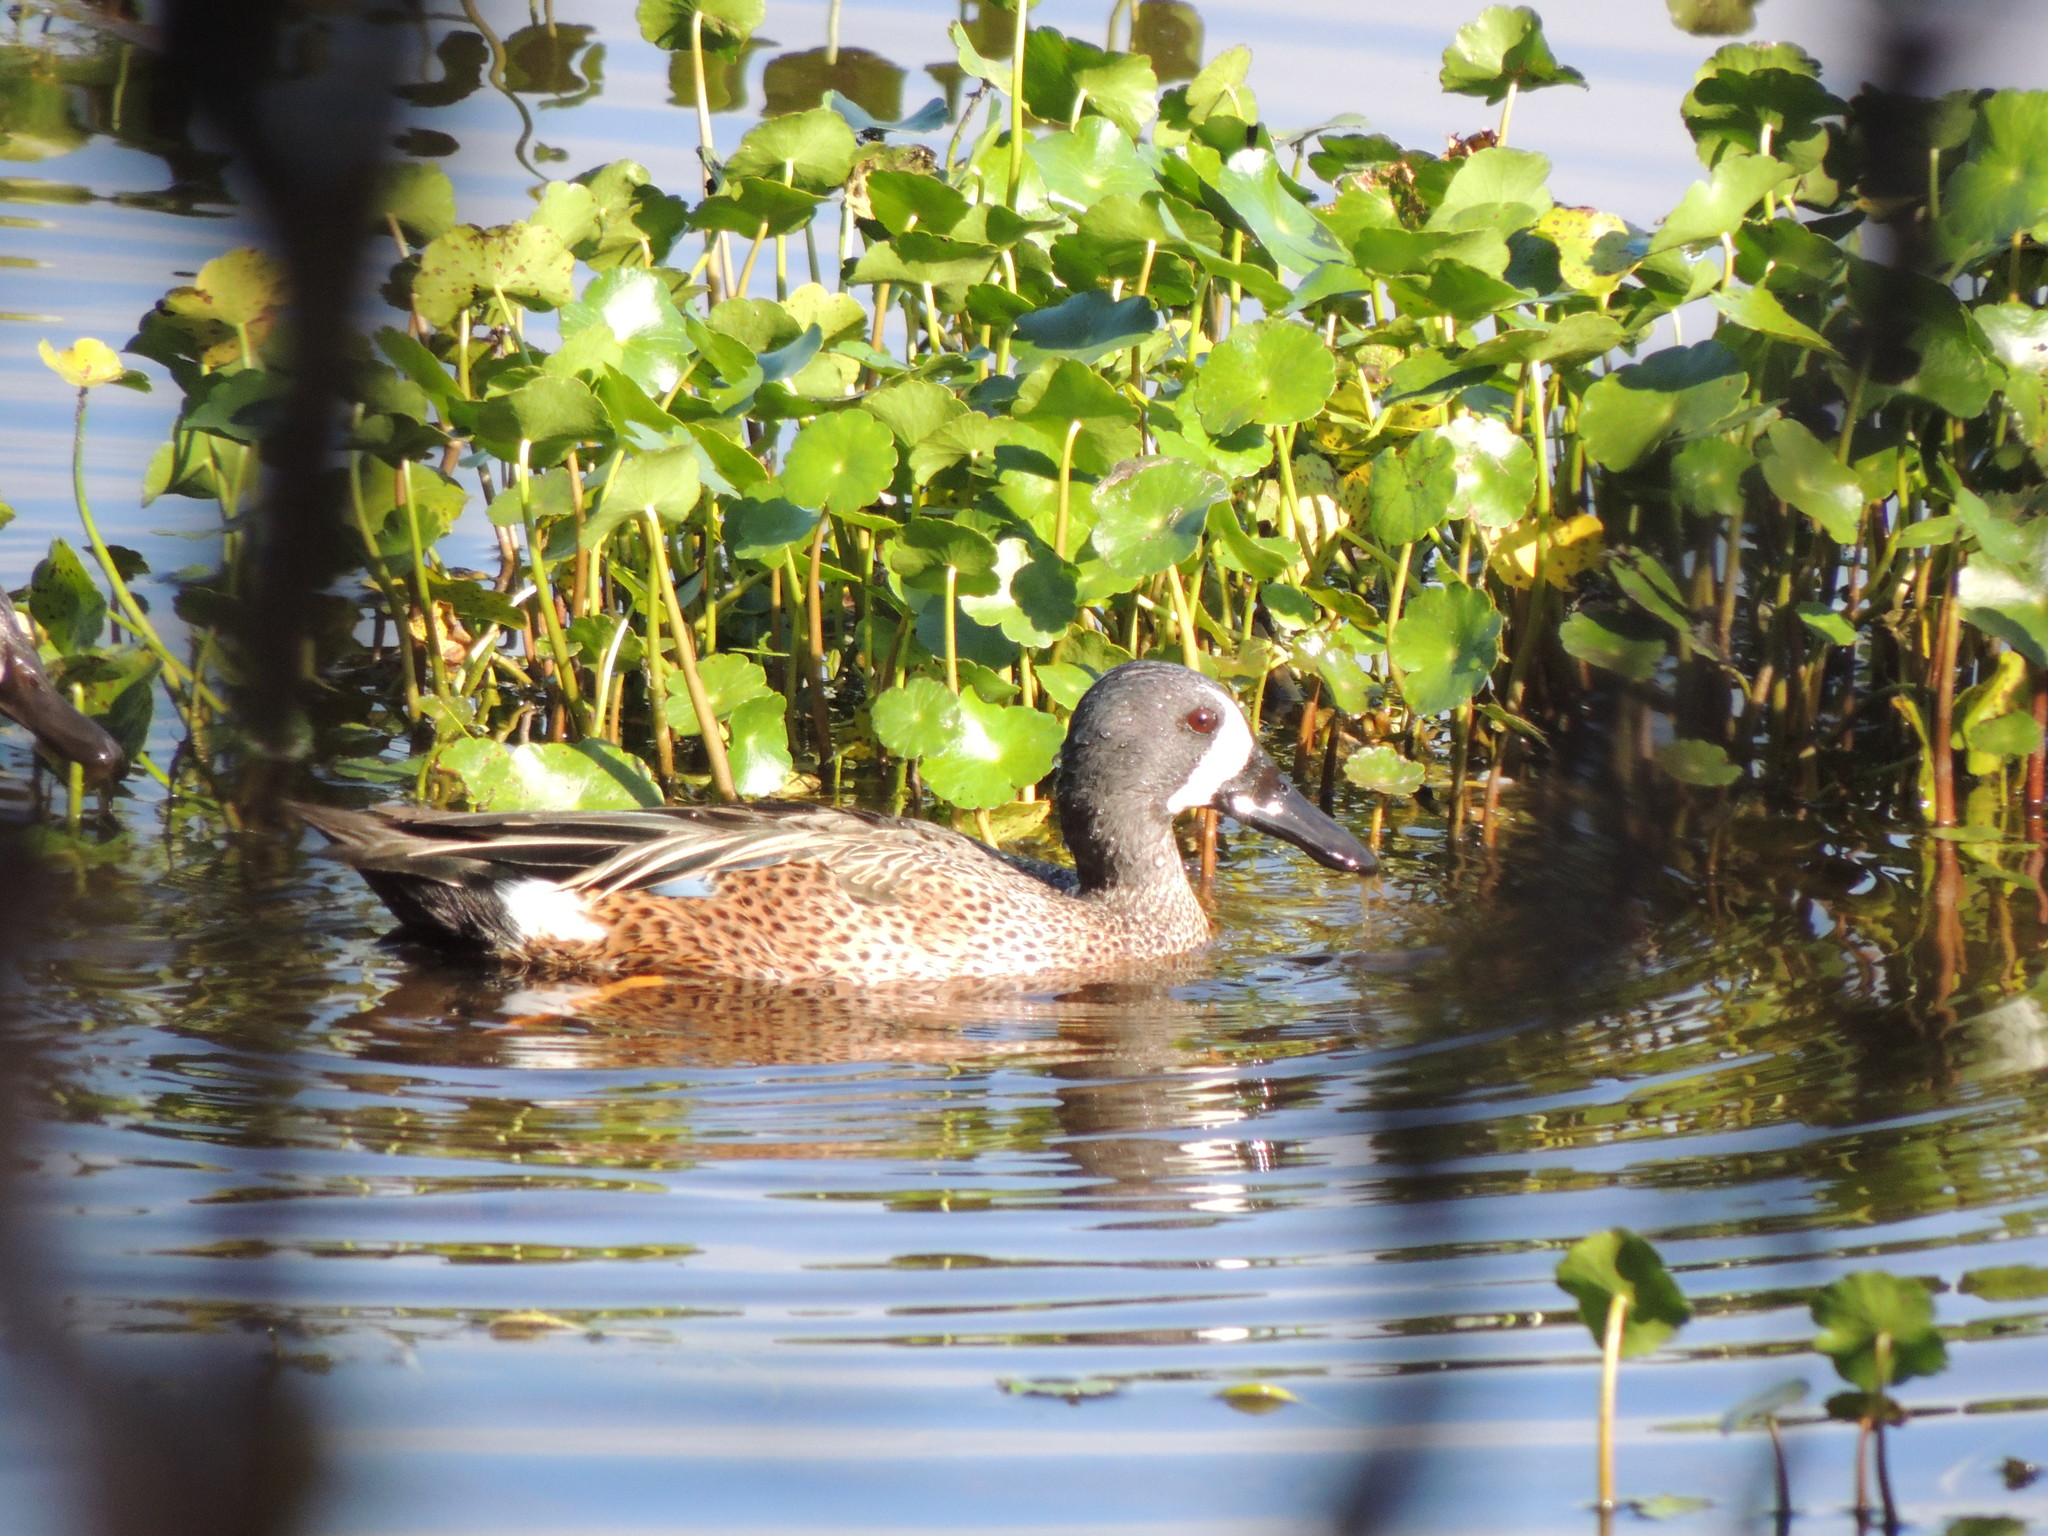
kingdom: Animalia
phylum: Chordata
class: Aves
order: Anseriformes
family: Anatidae
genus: Spatula
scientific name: Spatula discors
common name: Blue-winged teal
